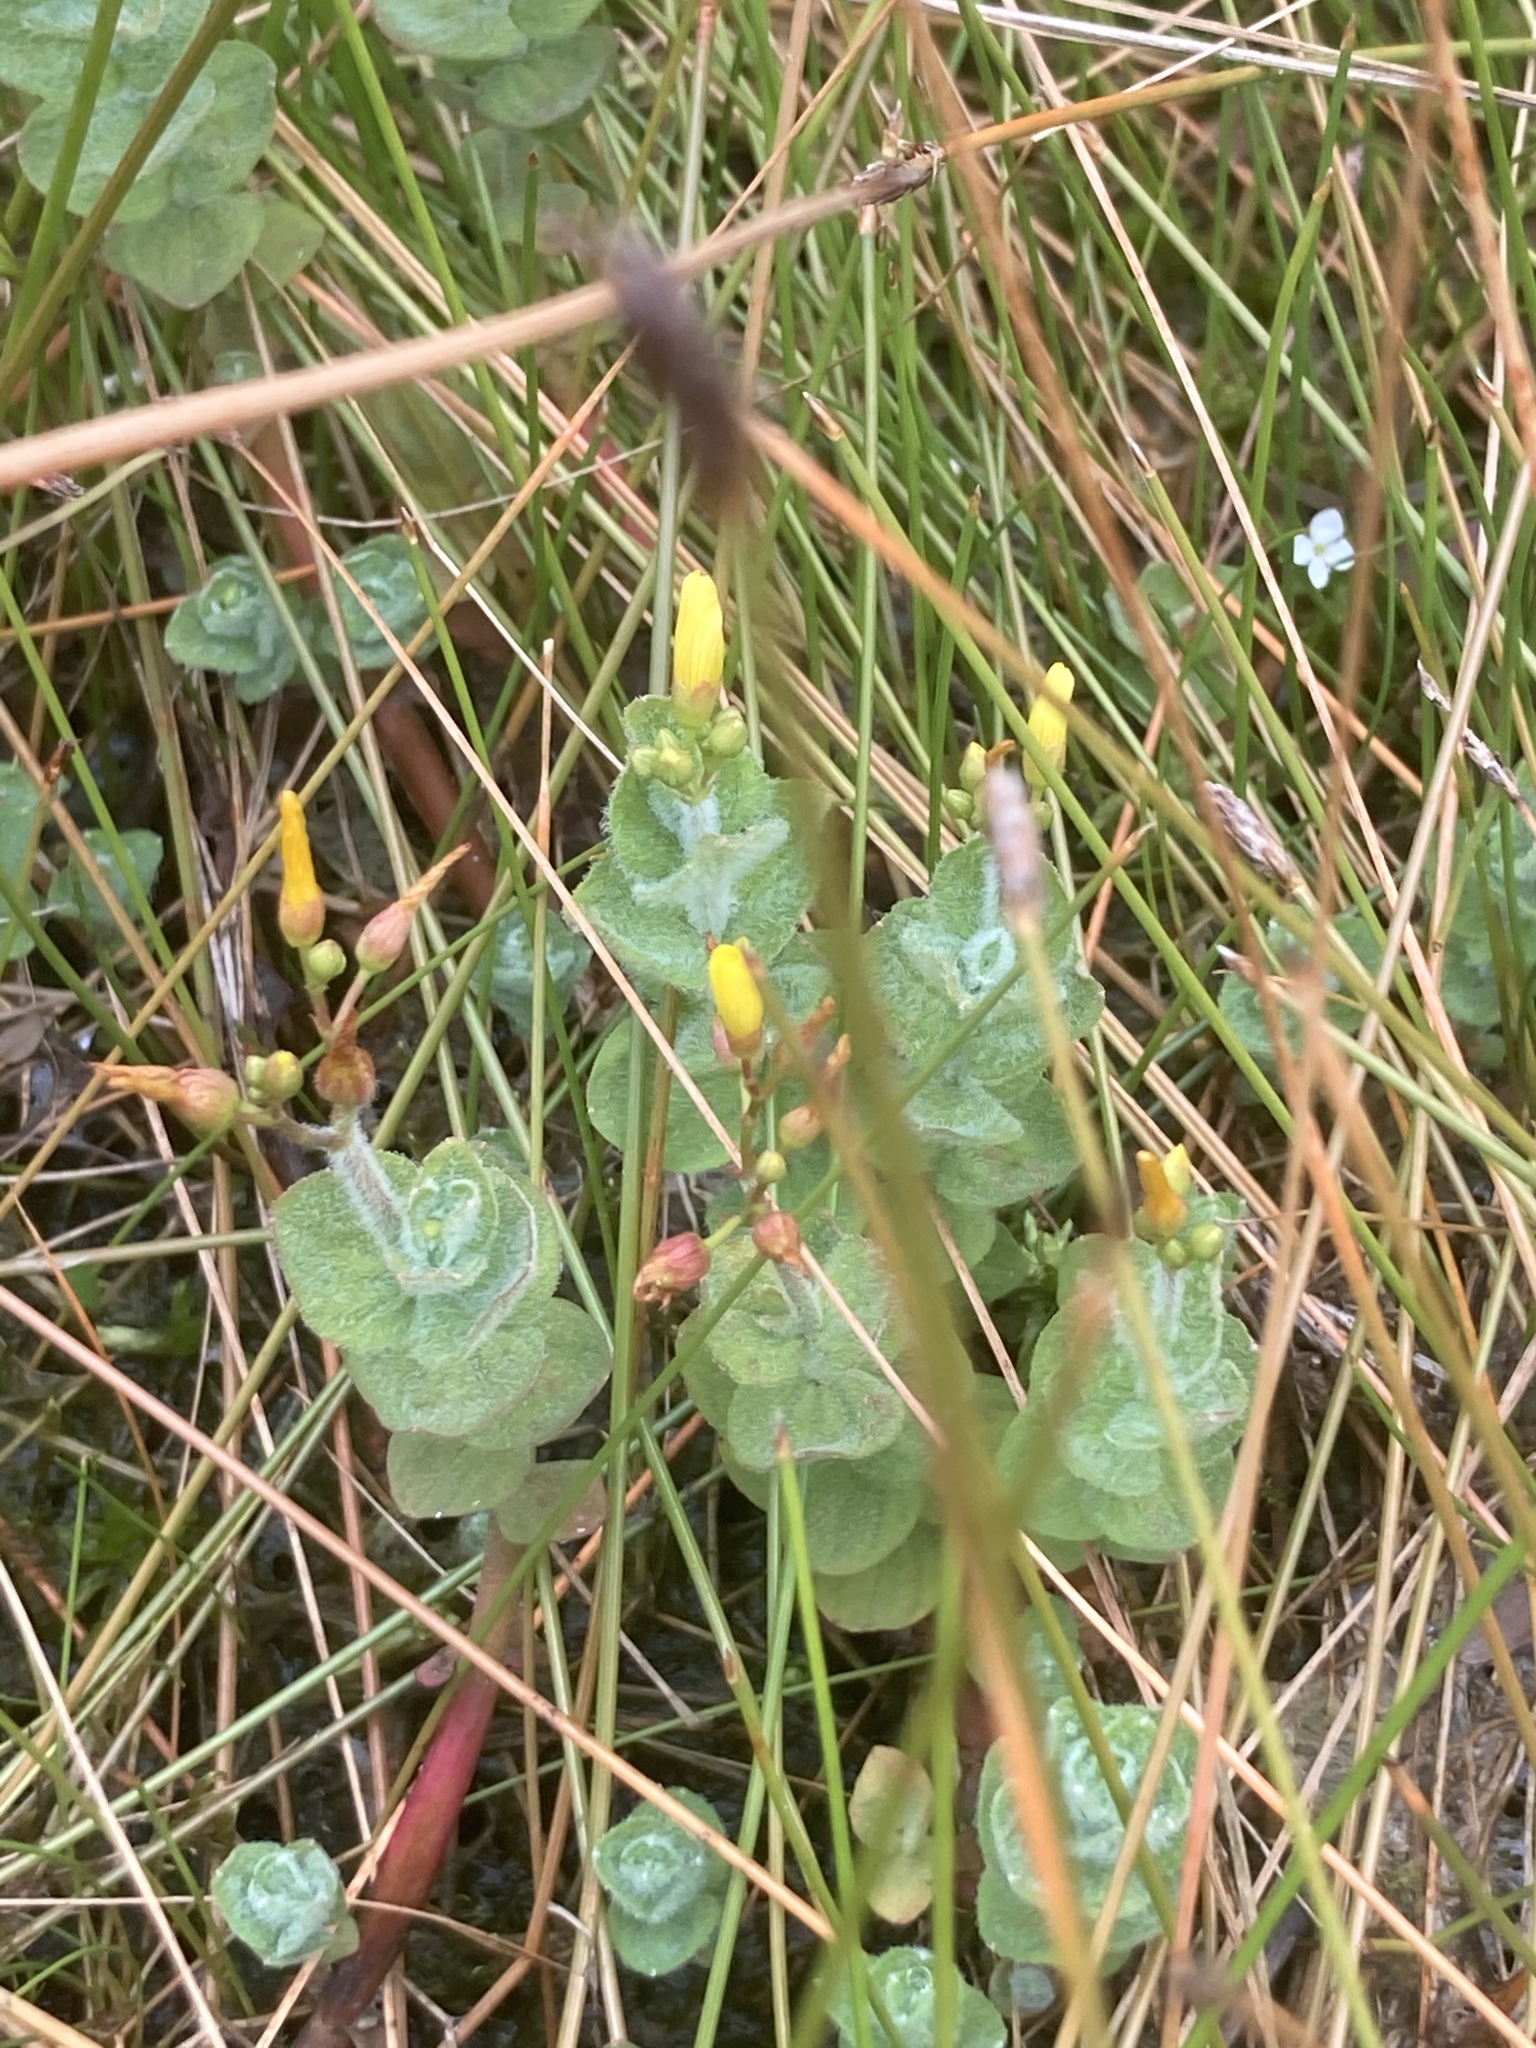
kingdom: Plantae
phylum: Tracheophyta
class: Magnoliopsida
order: Malpighiales
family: Hypericaceae
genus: Hypericum
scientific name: Hypericum elodes
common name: Marsh st. john's-wort
